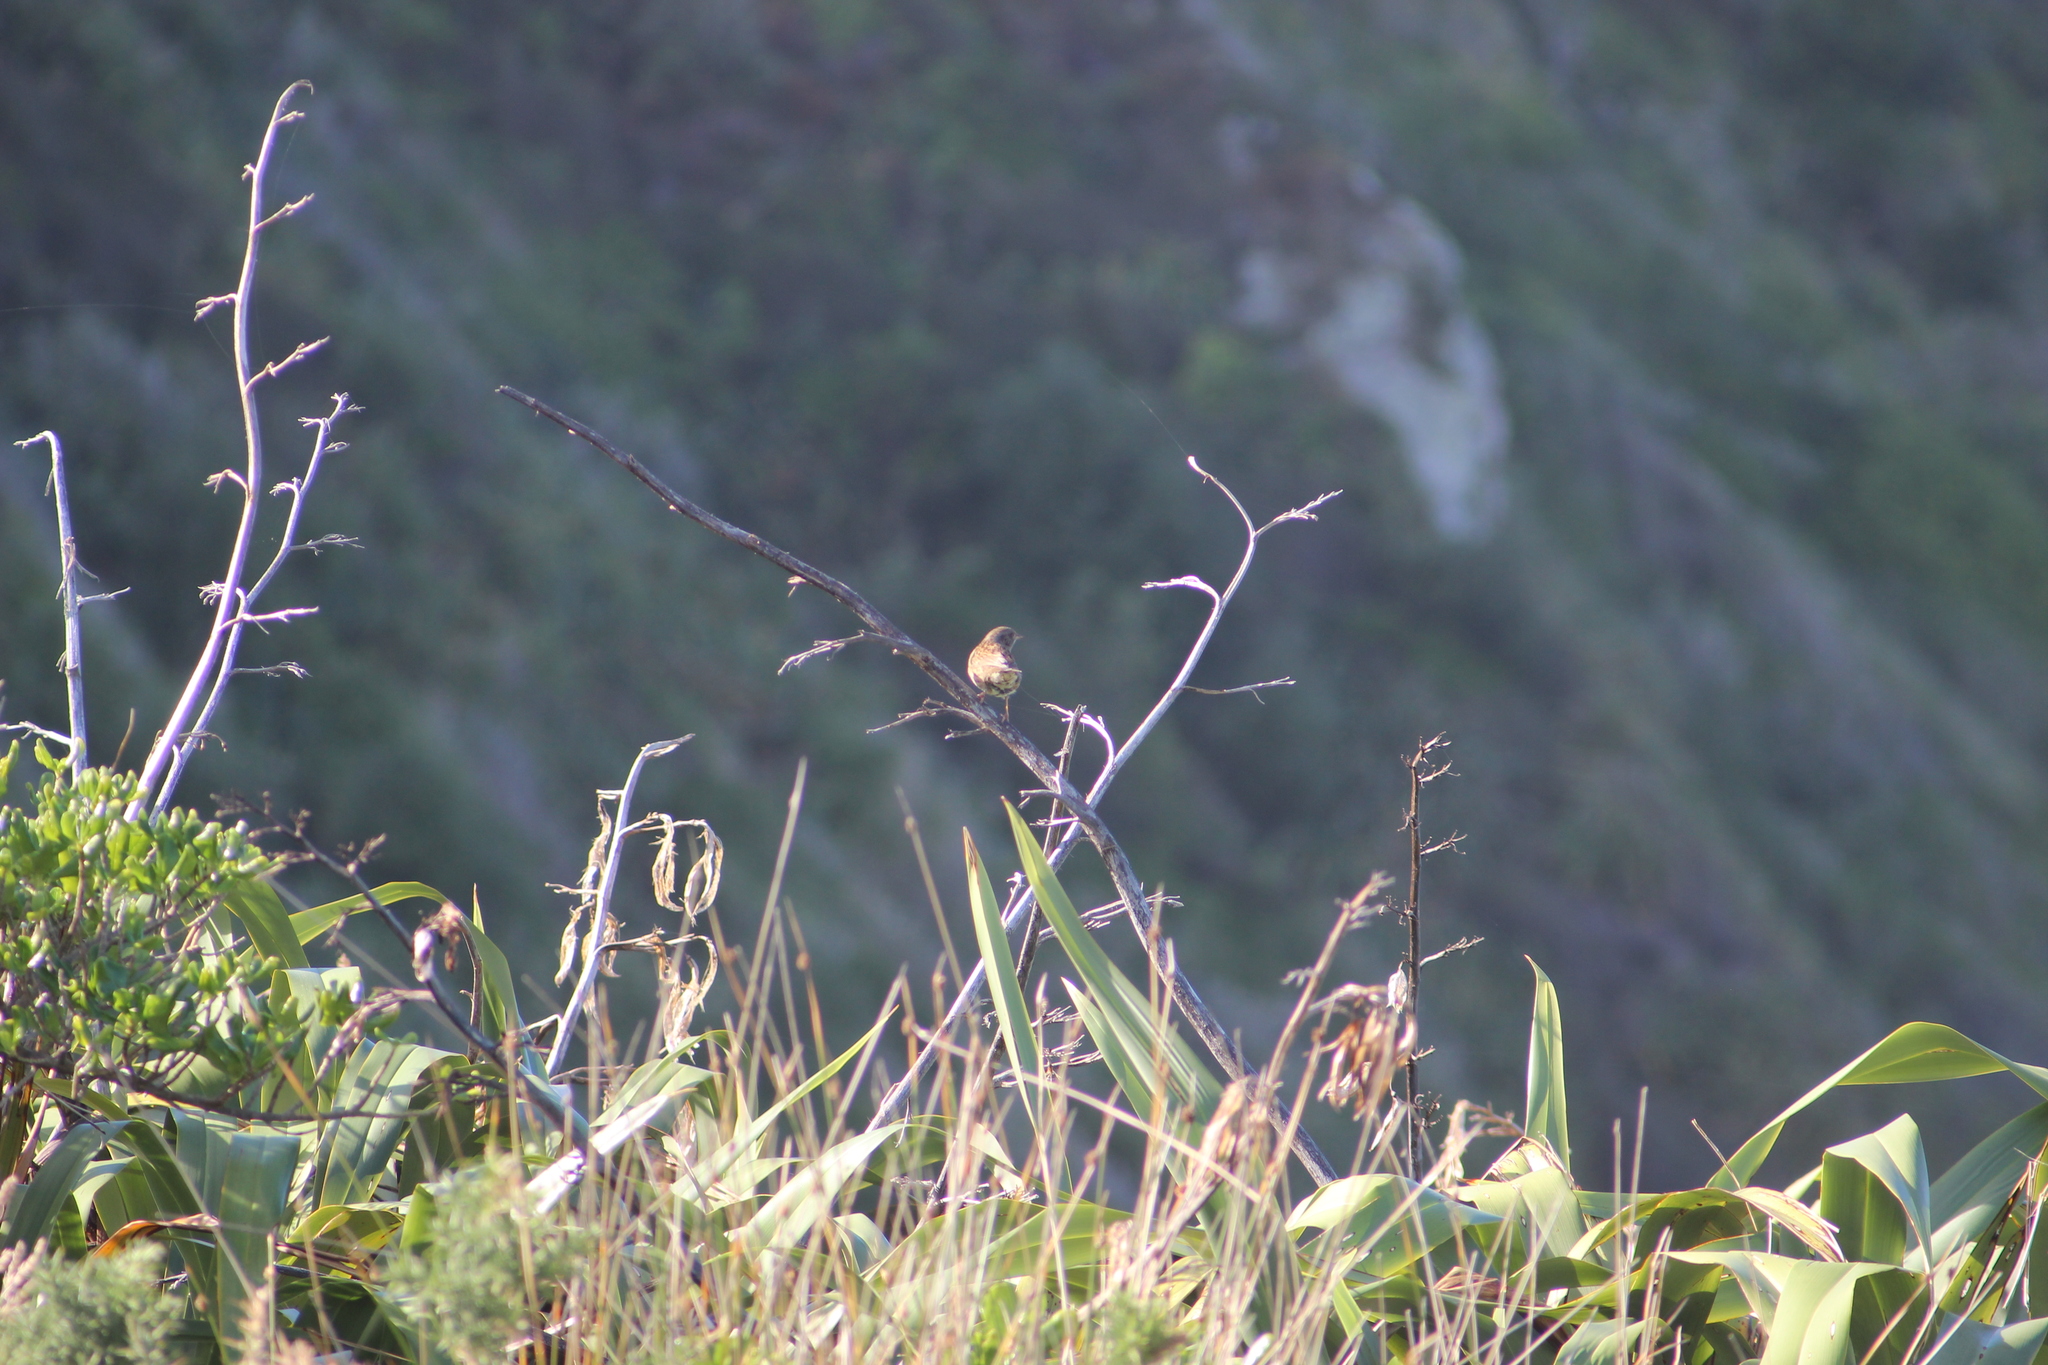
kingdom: Animalia
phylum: Chordata
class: Aves
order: Passeriformes
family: Prunellidae
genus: Prunella
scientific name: Prunella modularis
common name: Dunnock
